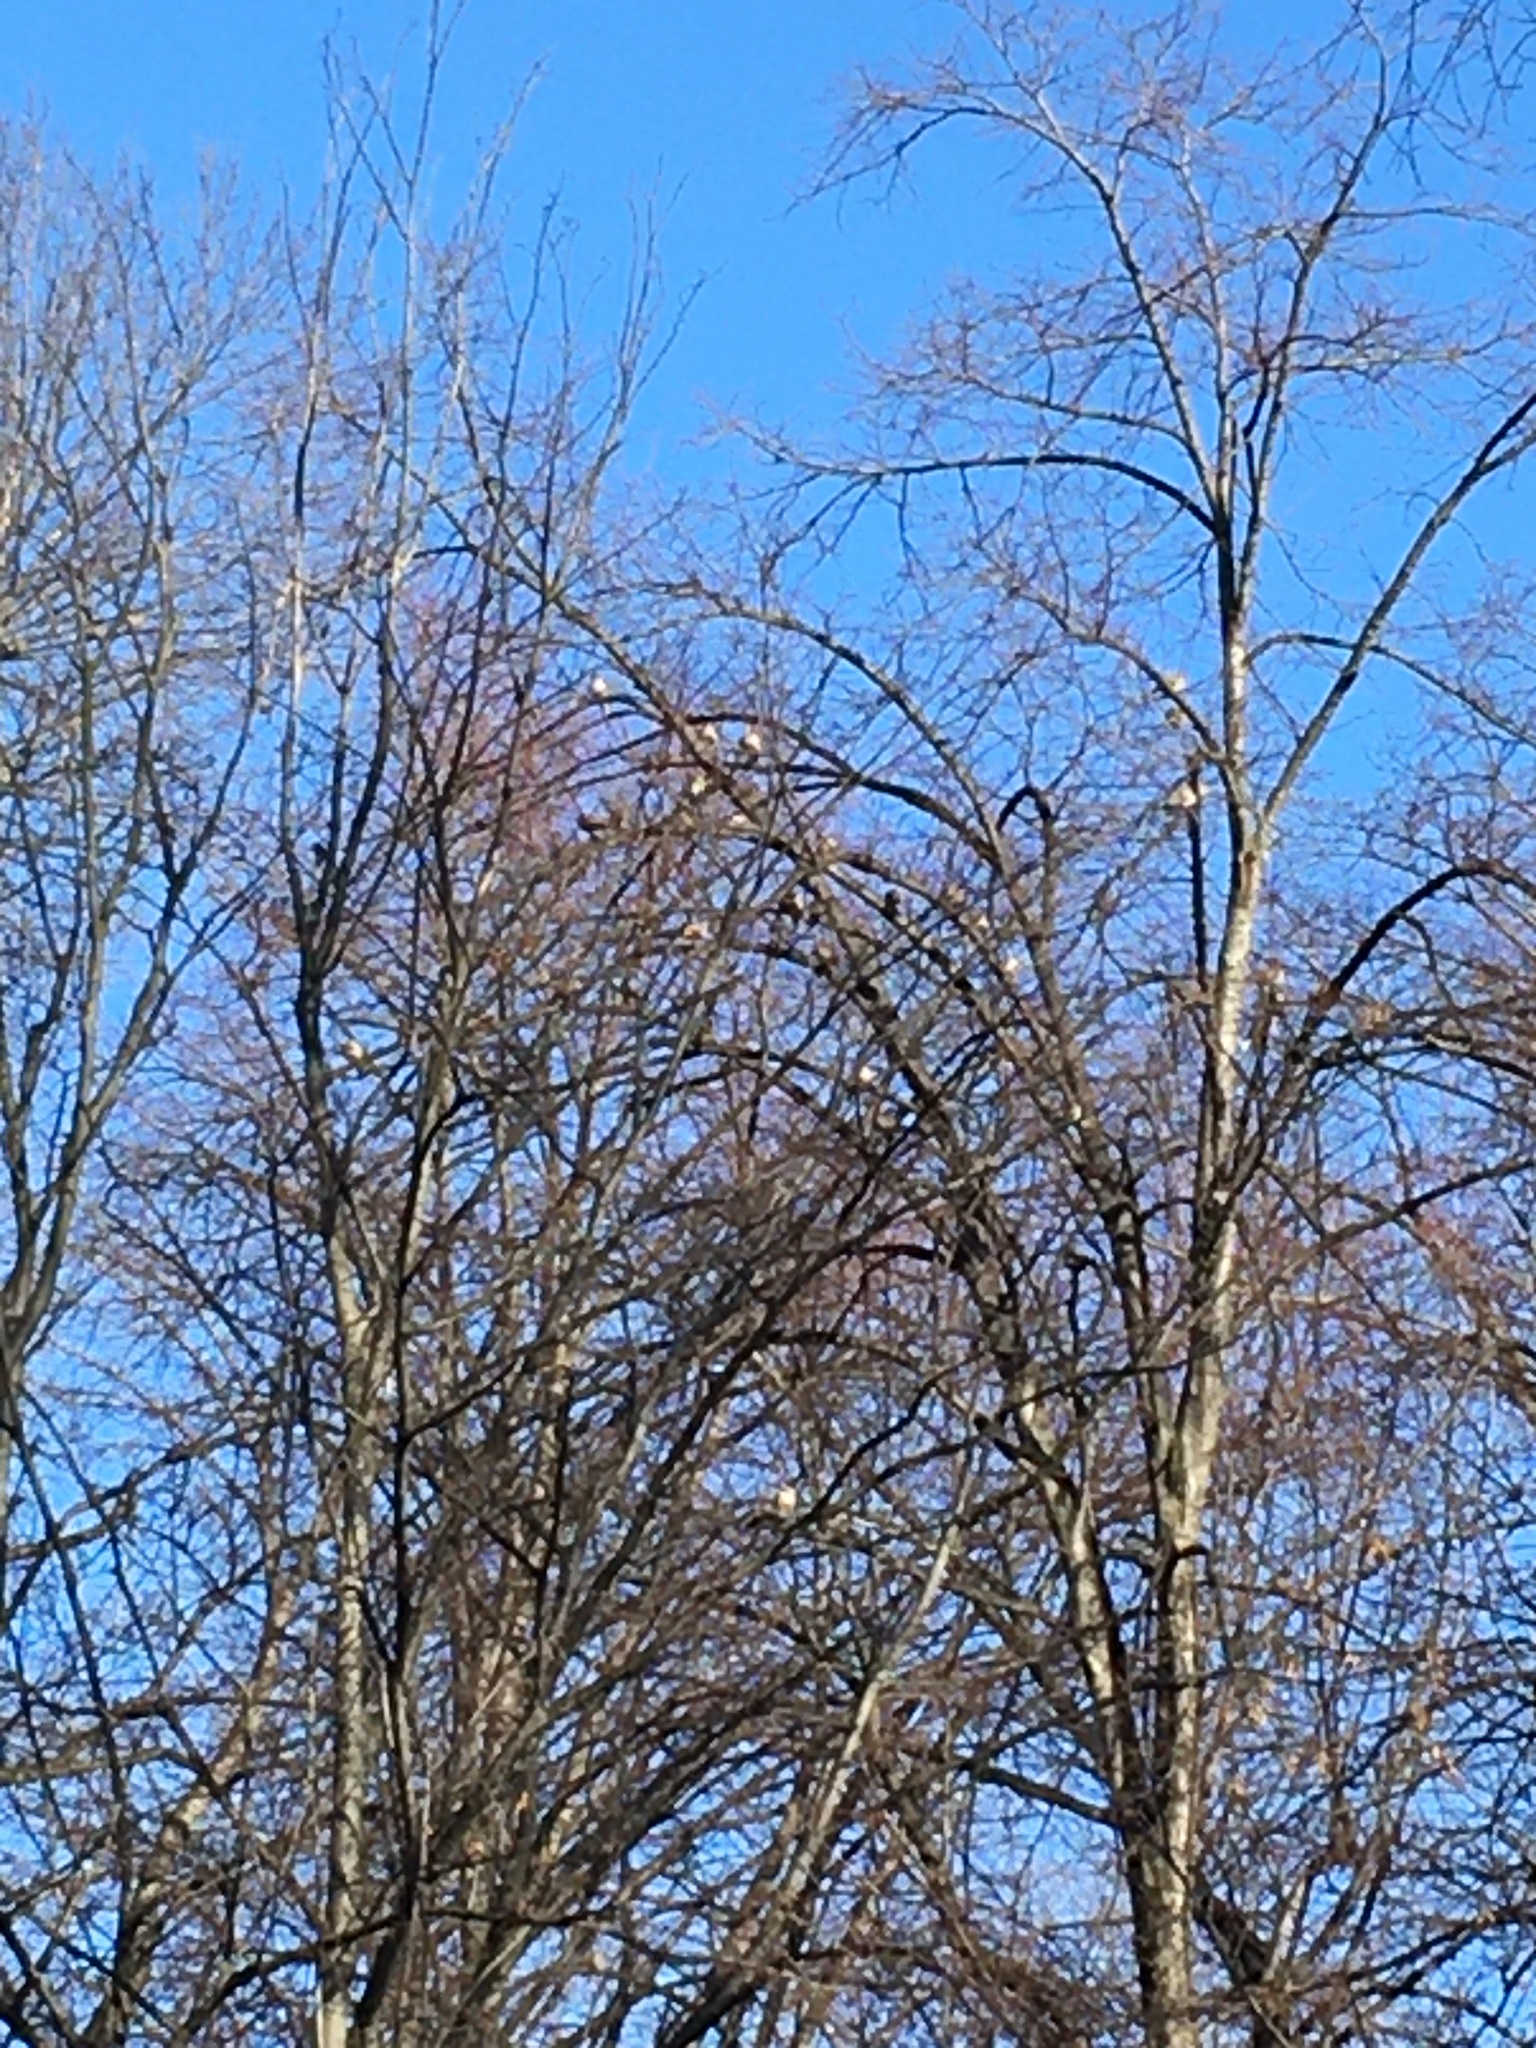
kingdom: Animalia
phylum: Chordata
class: Aves
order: Columbiformes
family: Columbidae
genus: Zenaida
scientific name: Zenaida macroura
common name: Mourning dove
